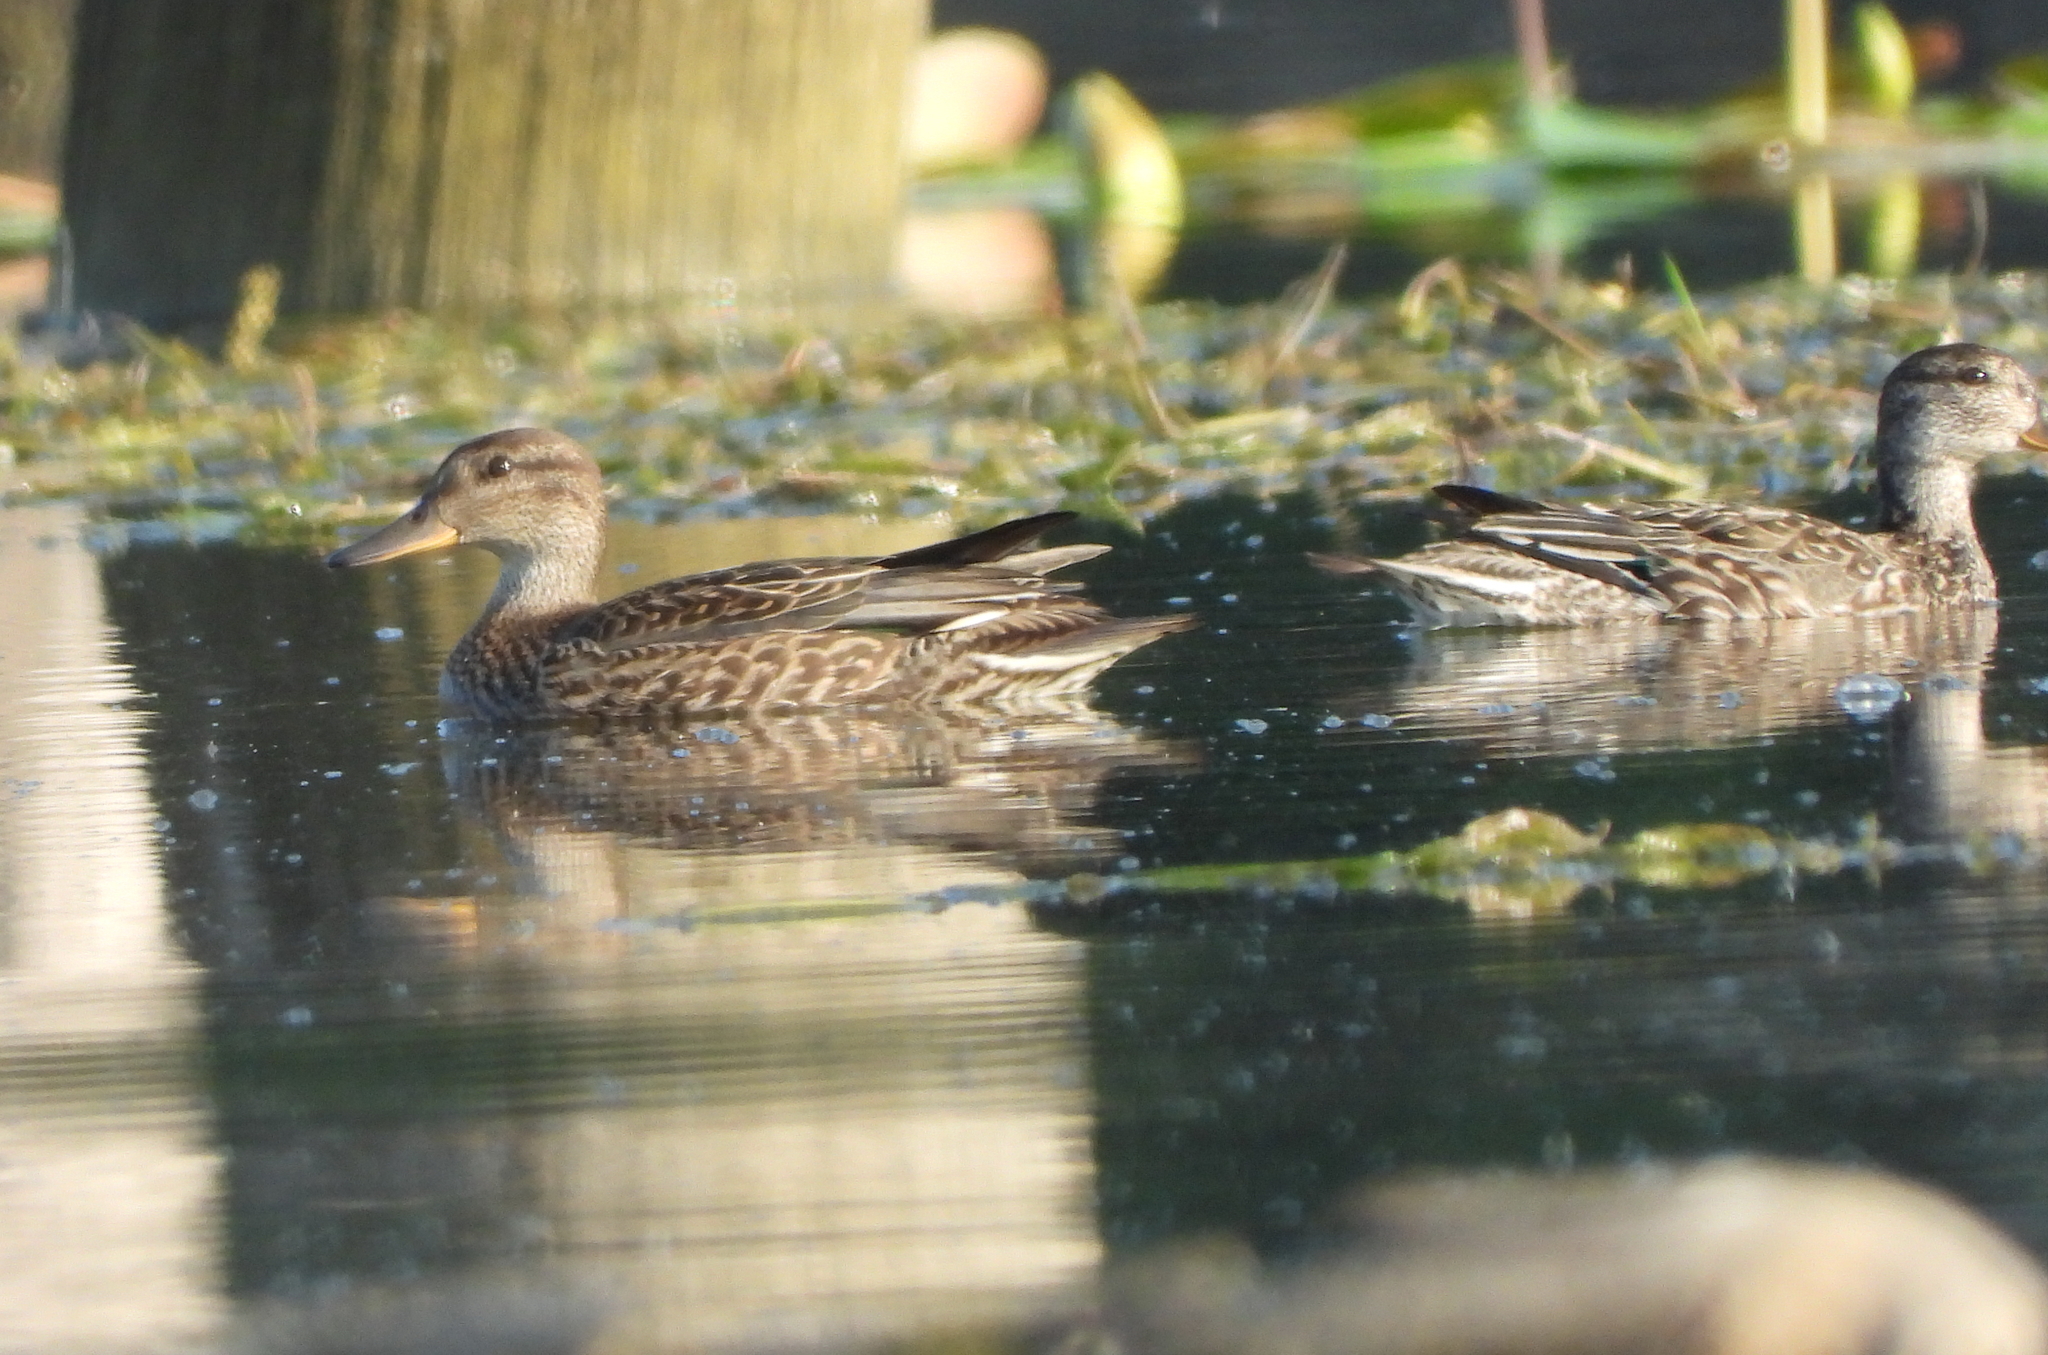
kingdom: Animalia
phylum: Chordata
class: Aves
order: Anseriformes
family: Anatidae
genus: Mareca
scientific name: Mareca strepera
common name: Gadwall
